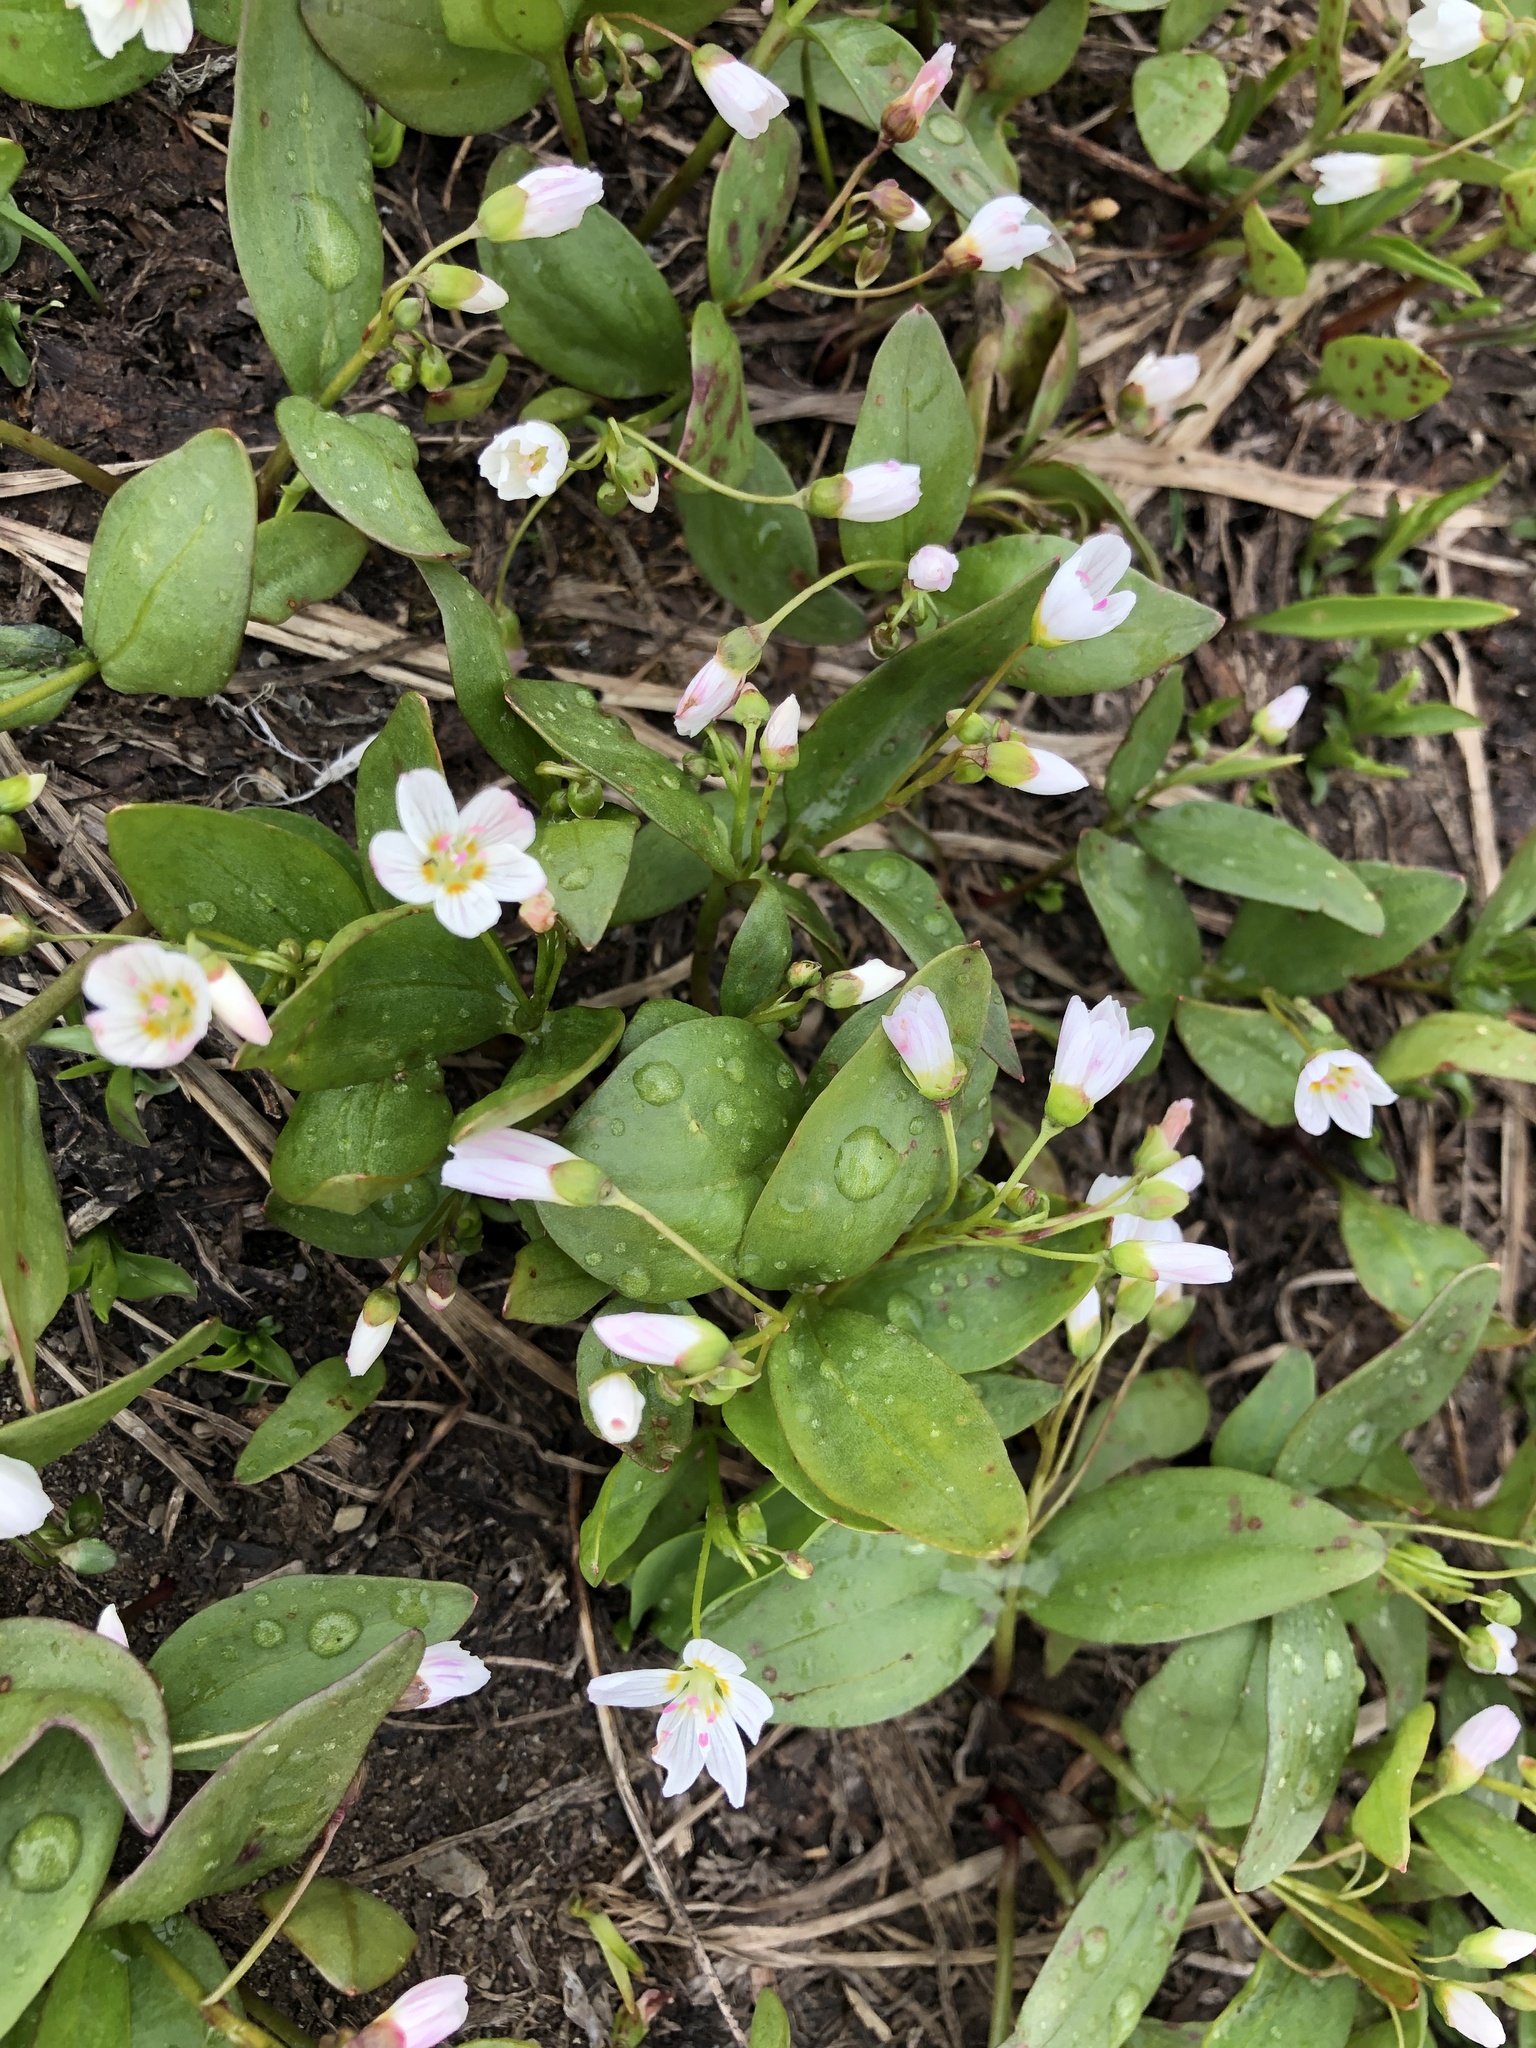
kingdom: Plantae
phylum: Tracheophyta
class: Magnoliopsida
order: Caryophyllales
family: Montiaceae
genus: Claytonia
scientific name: Claytonia lanceolata
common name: Western spring-beauty
